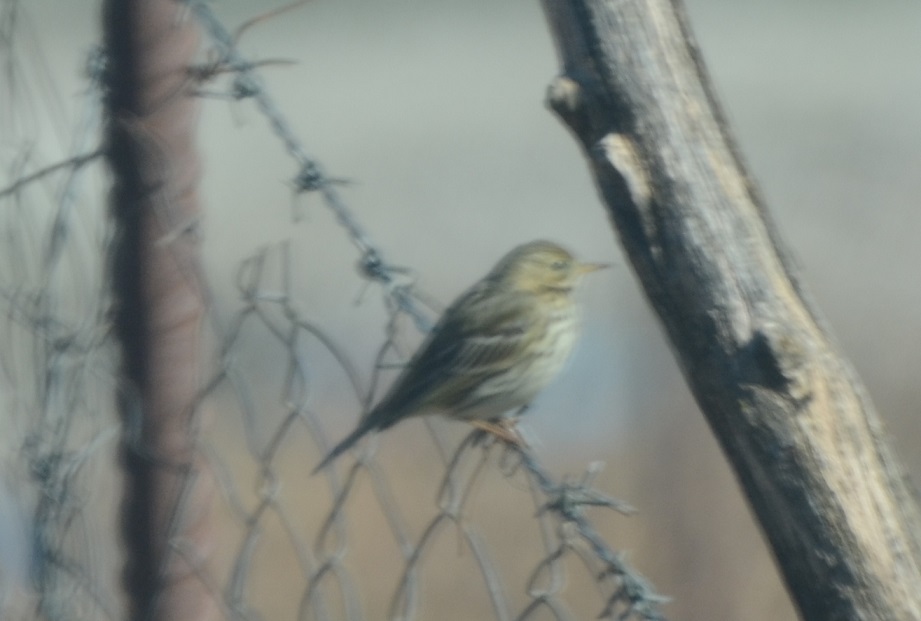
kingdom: Animalia
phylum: Chordata
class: Aves
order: Passeriformes
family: Motacillidae
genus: Anthus
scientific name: Anthus pratensis
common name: Meadow pipit
